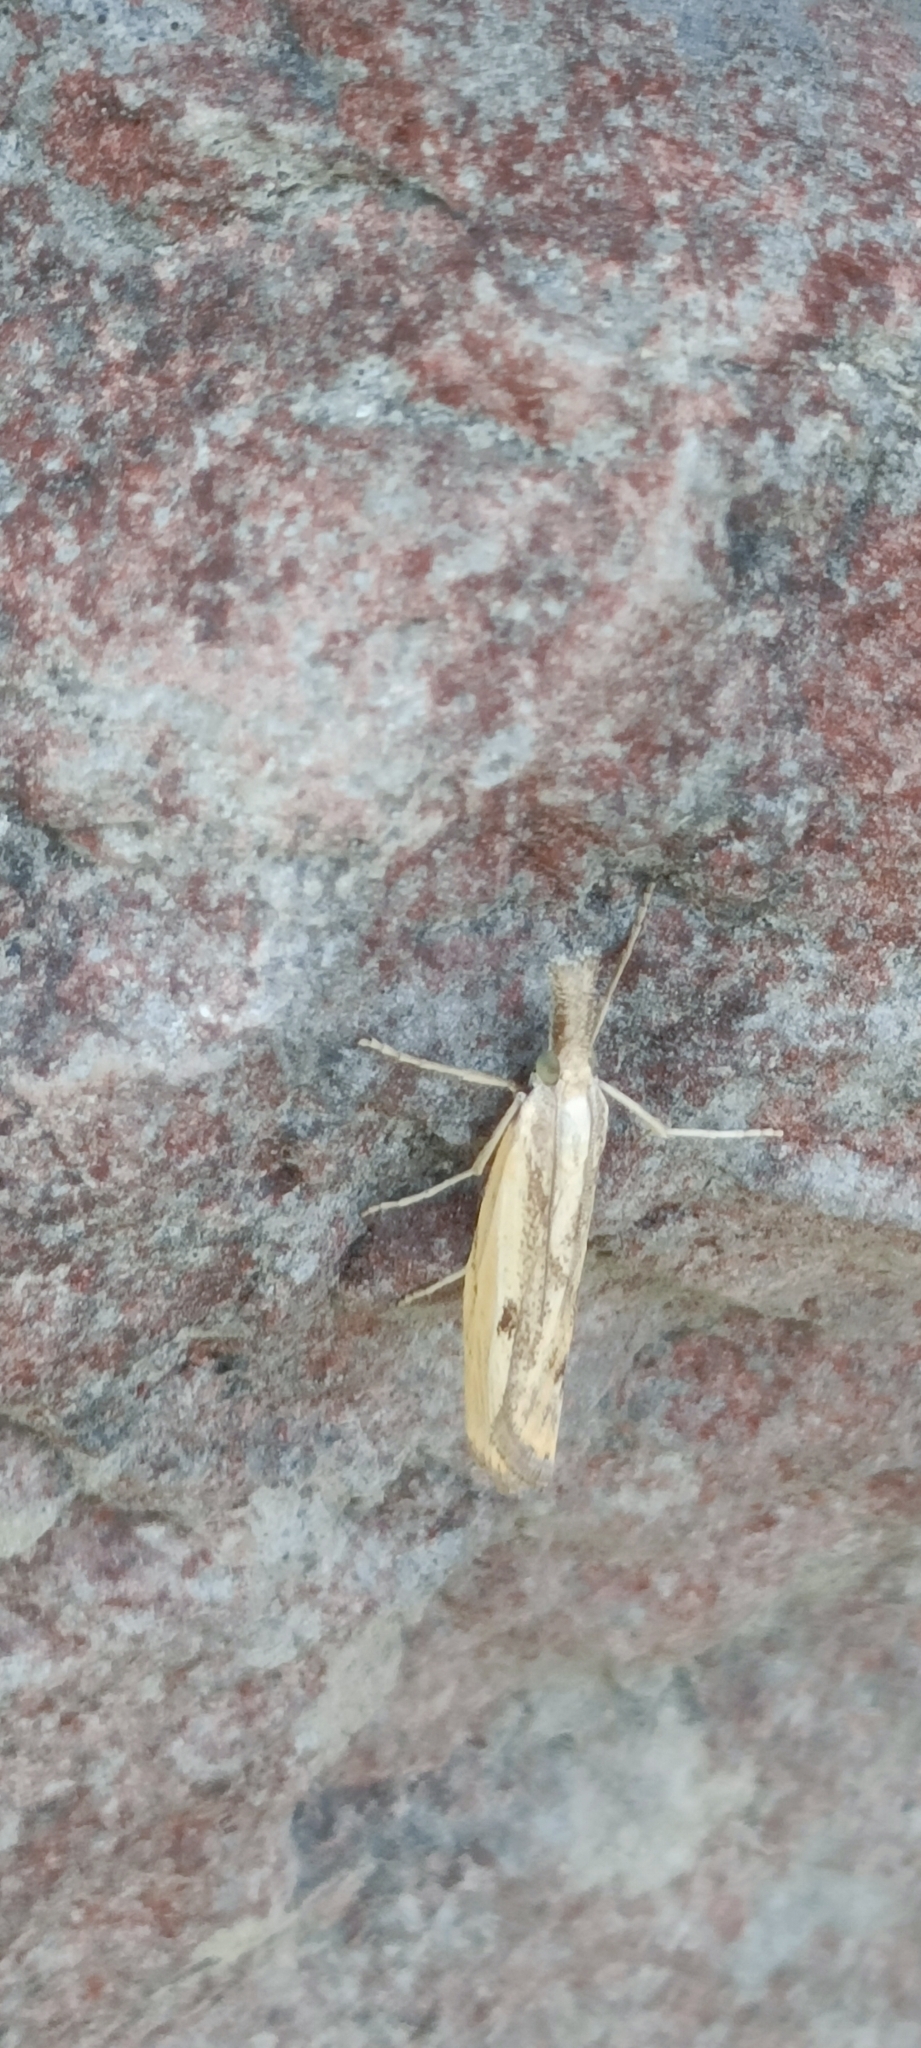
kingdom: Animalia
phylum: Arthropoda
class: Insecta
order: Lepidoptera
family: Crambidae
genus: Agriphila
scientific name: Agriphila inquinatella
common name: Barred grass-veneer
